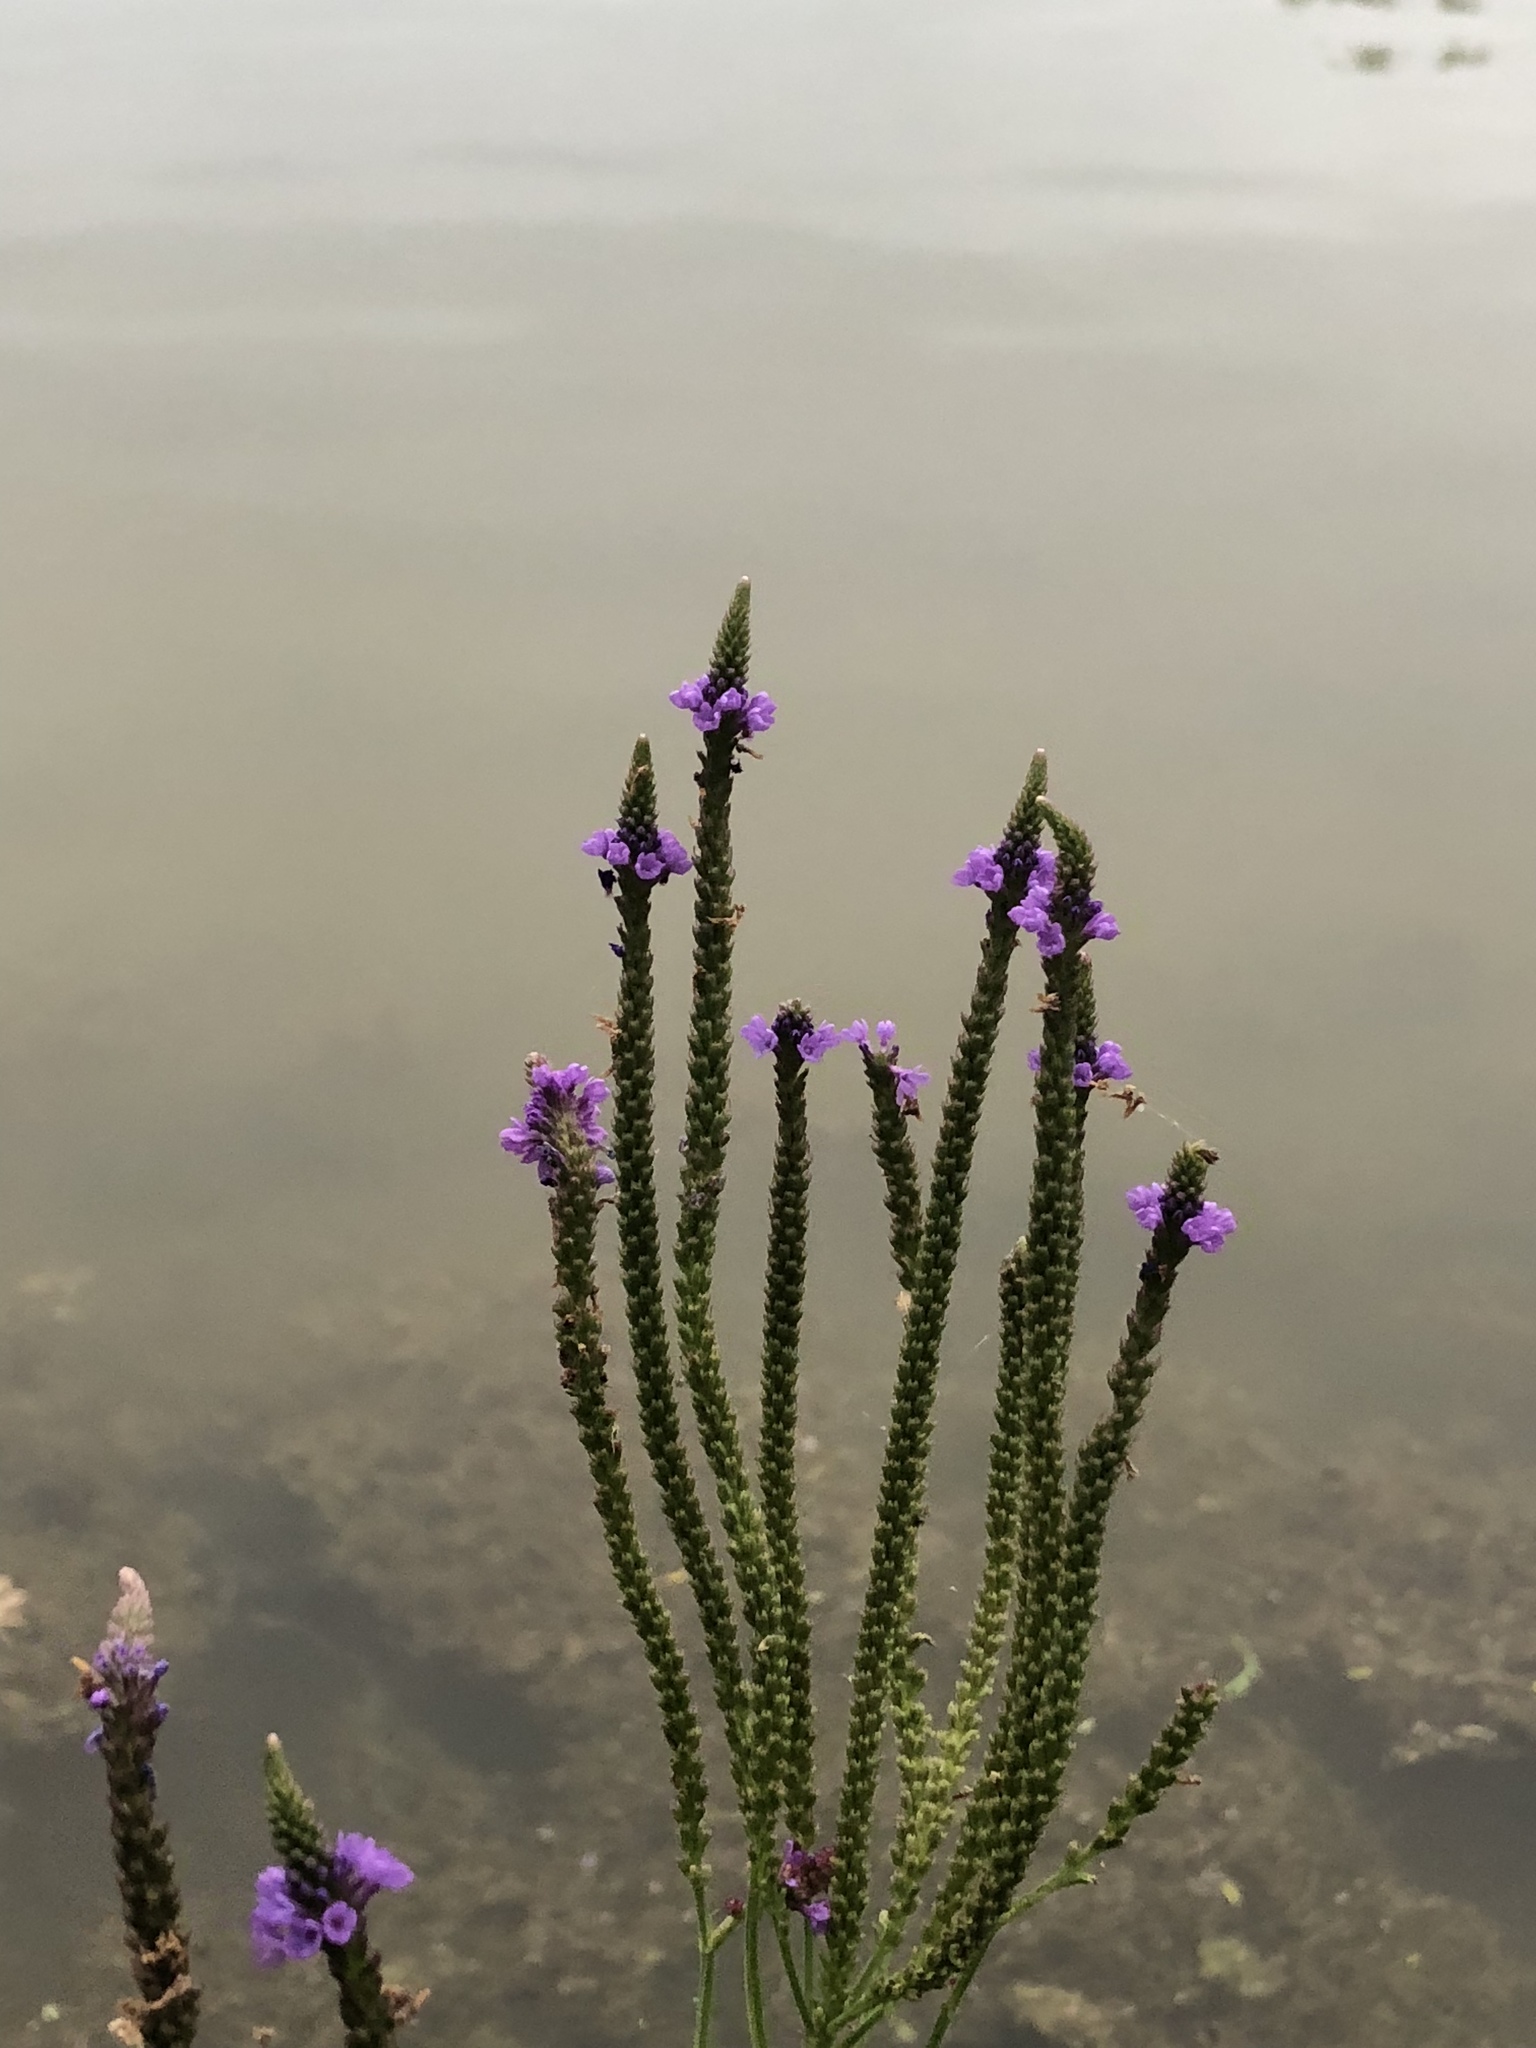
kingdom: Plantae
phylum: Tracheophyta
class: Magnoliopsida
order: Lamiales
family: Verbenaceae
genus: Verbena
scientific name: Verbena hastata
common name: American blue vervain
